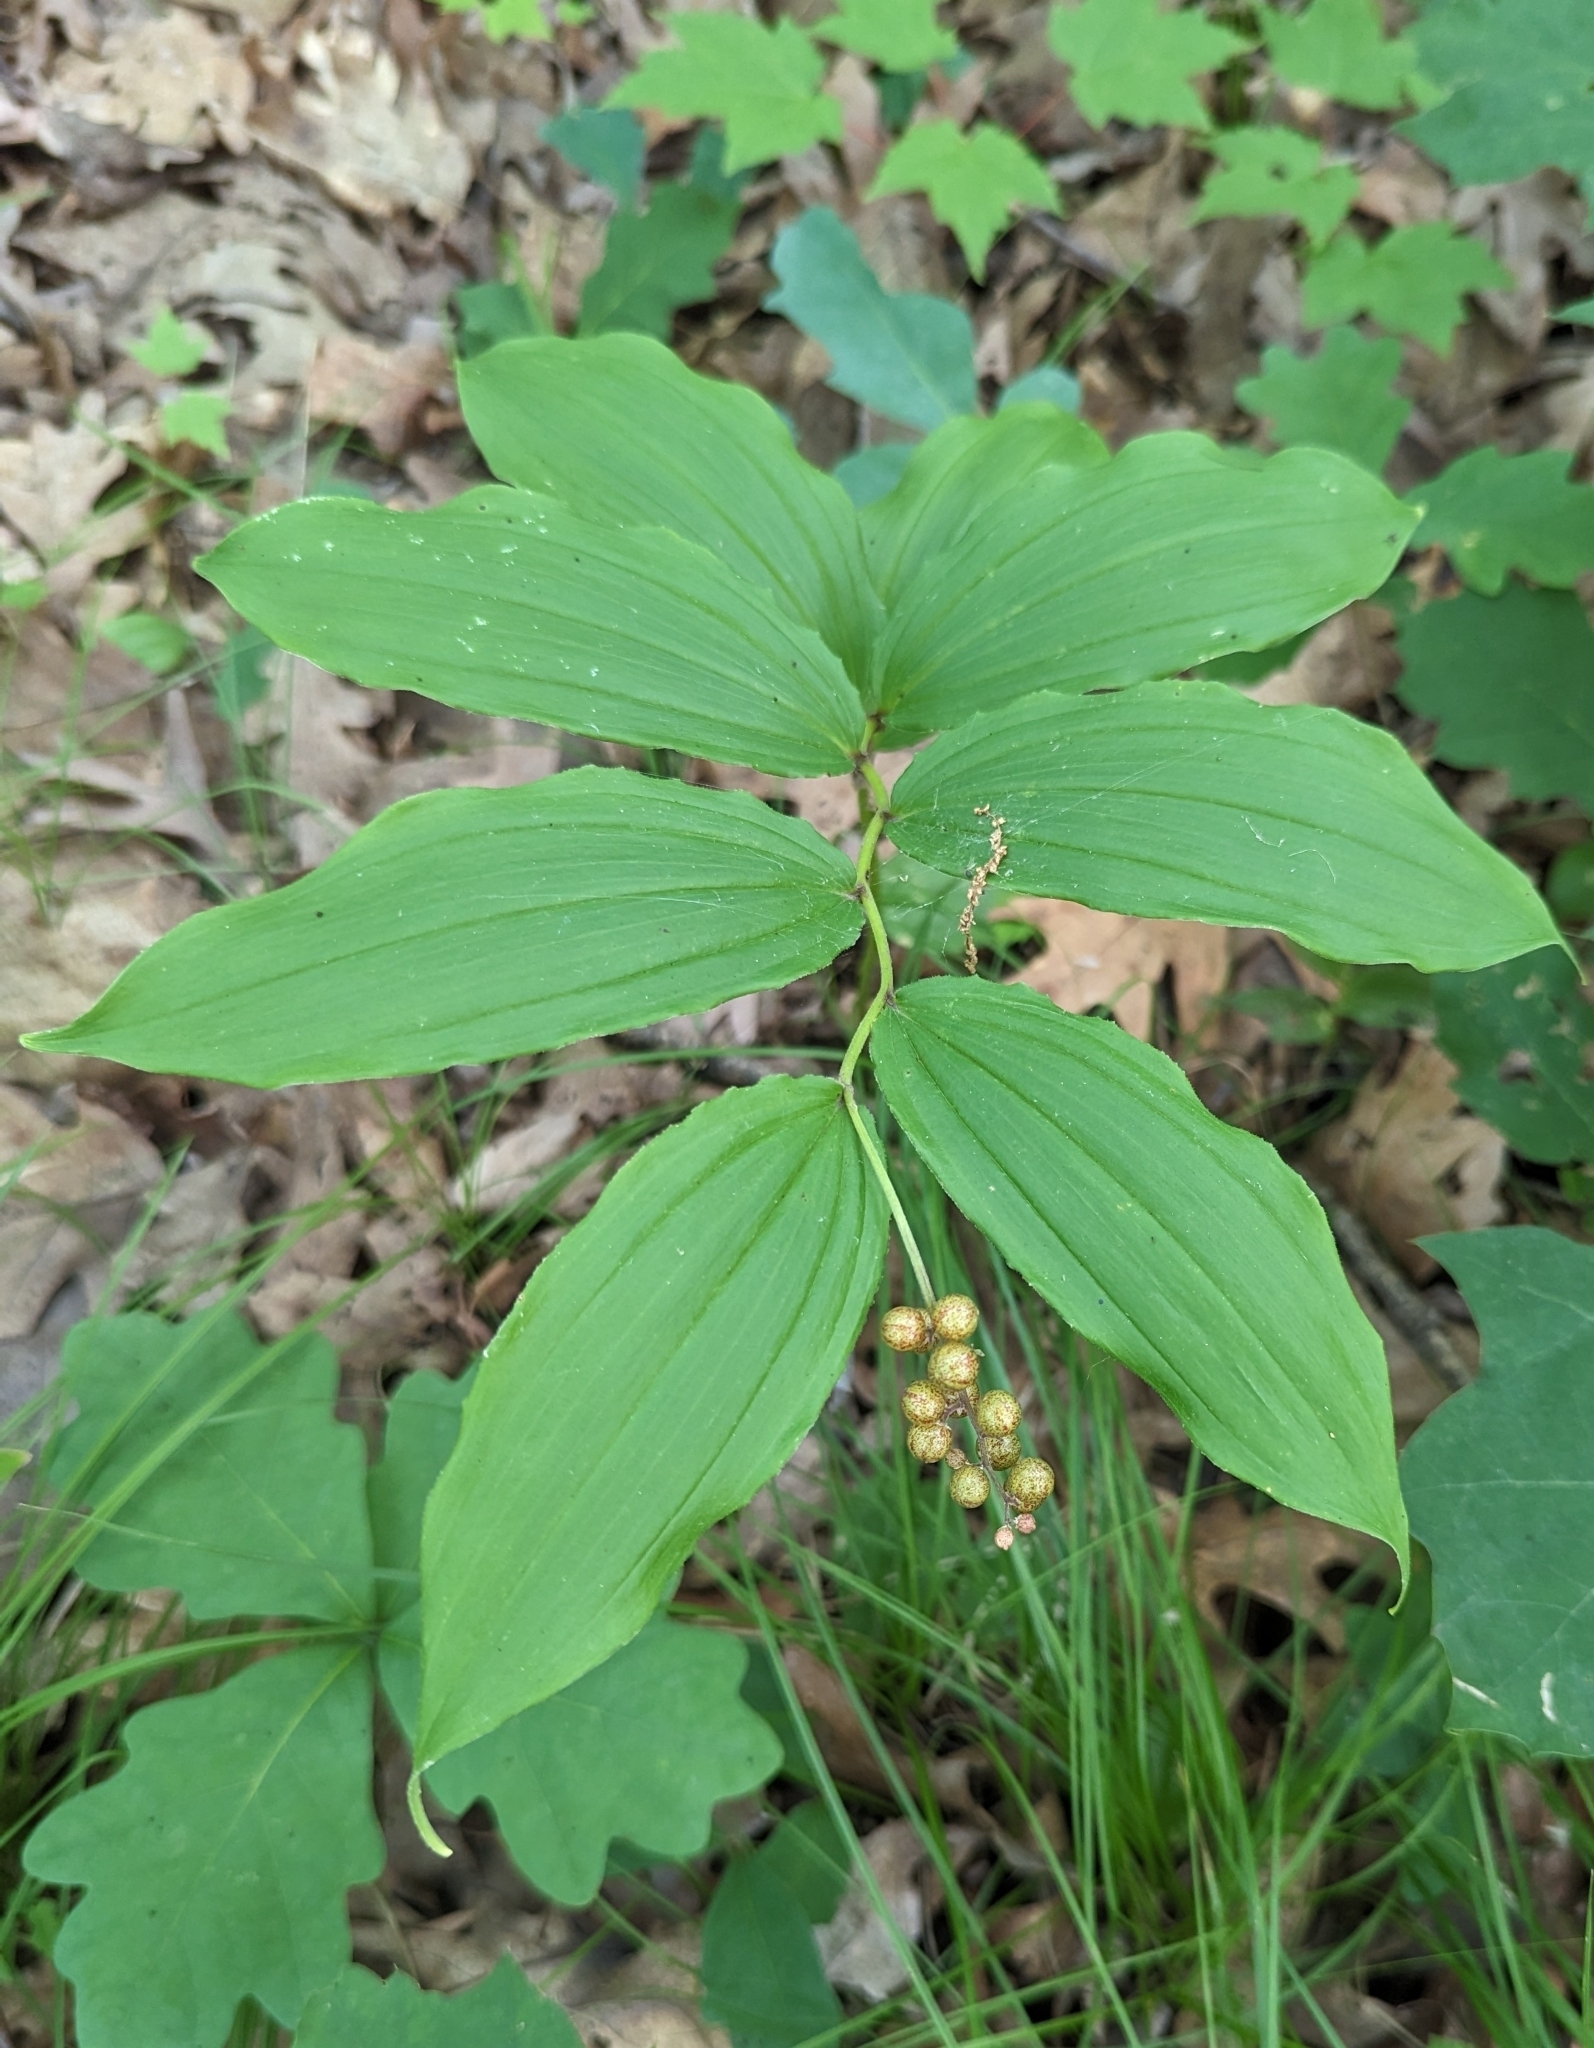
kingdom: Plantae
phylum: Tracheophyta
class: Liliopsida
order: Asparagales
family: Asparagaceae
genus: Maianthemum
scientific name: Maianthemum racemosum
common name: False spikenard
